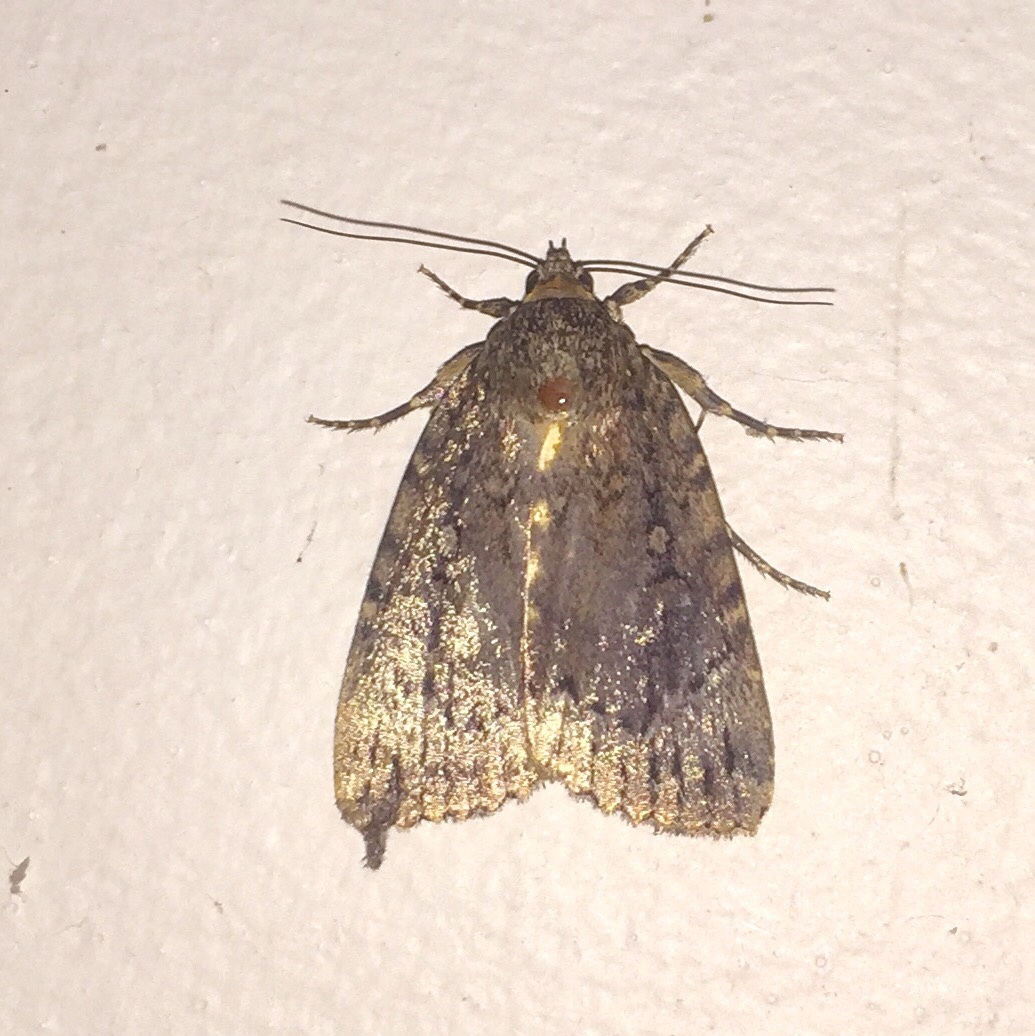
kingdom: Animalia
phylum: Arthropoda
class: Insecta
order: Lepidoptera
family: Noctuidae
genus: Amphipyra
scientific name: Amphipyra pyramidoides
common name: American copper underwing
